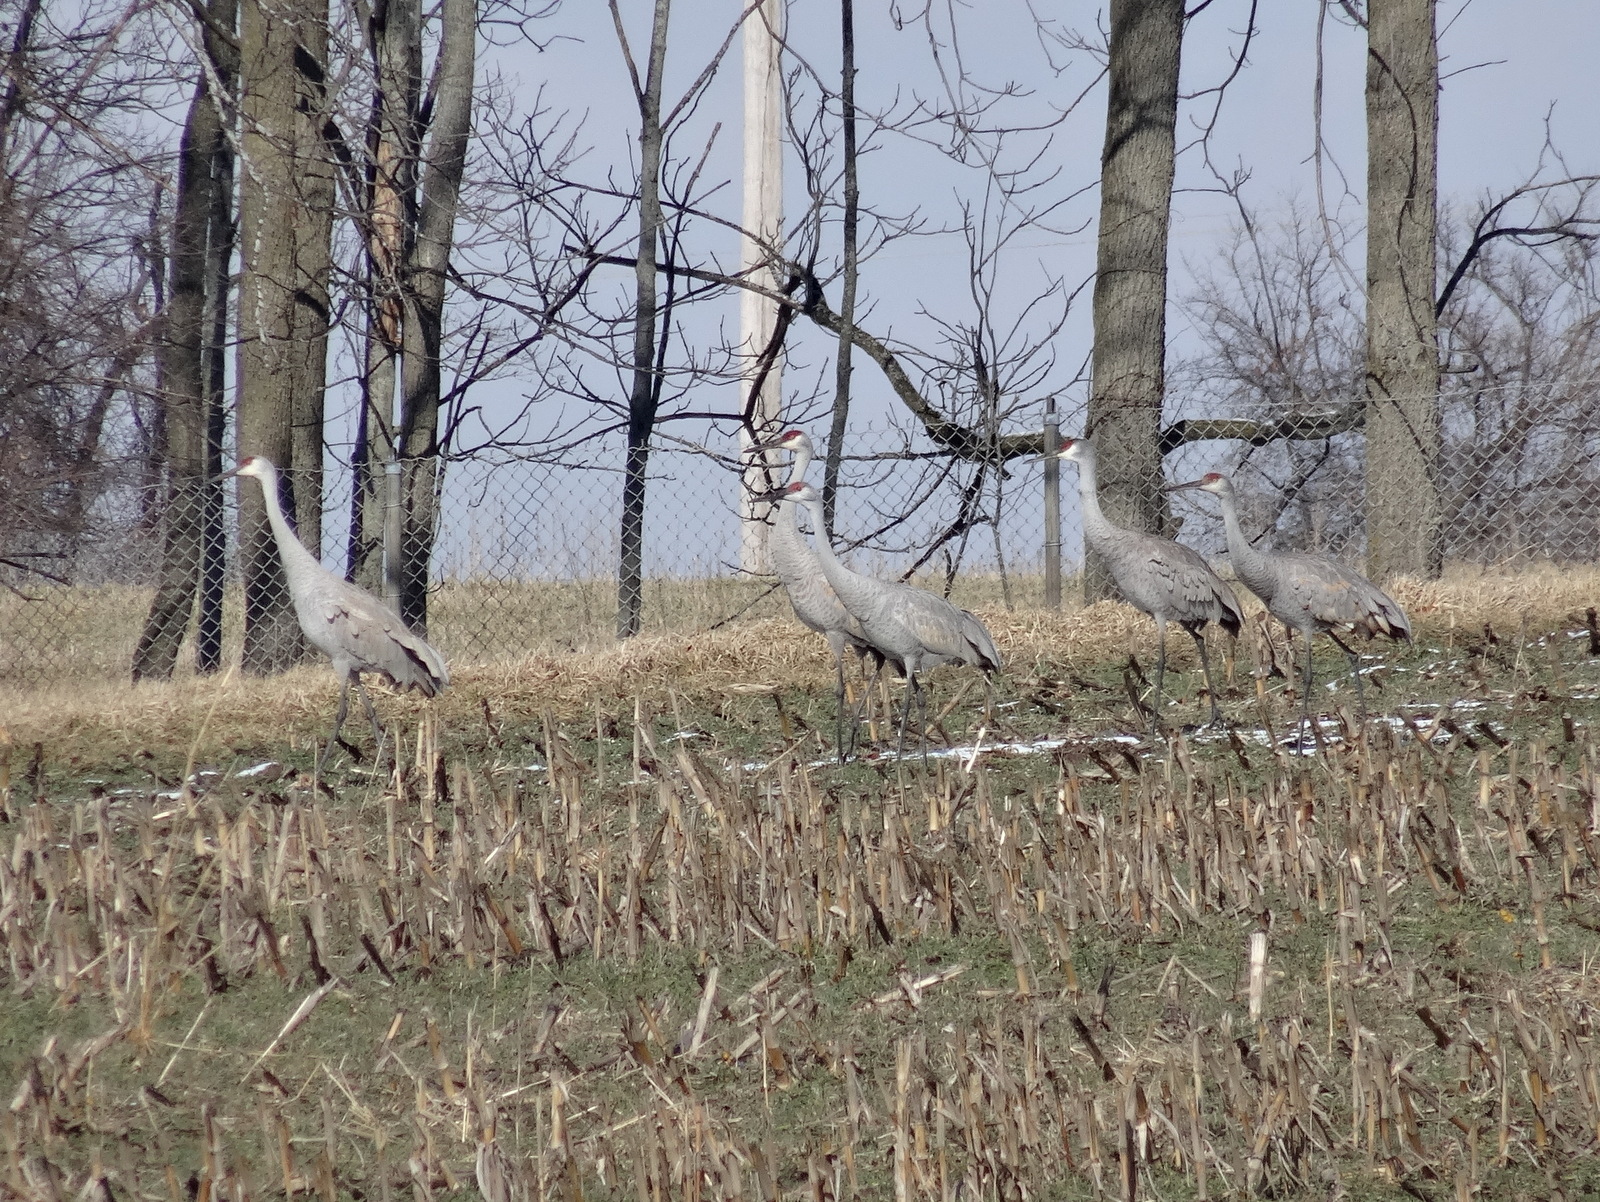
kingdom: Animalia
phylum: Chordata
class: Aves
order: Gruiformes
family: Gruidae
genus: Grus
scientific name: Grus canadensis
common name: Sandhill crane
